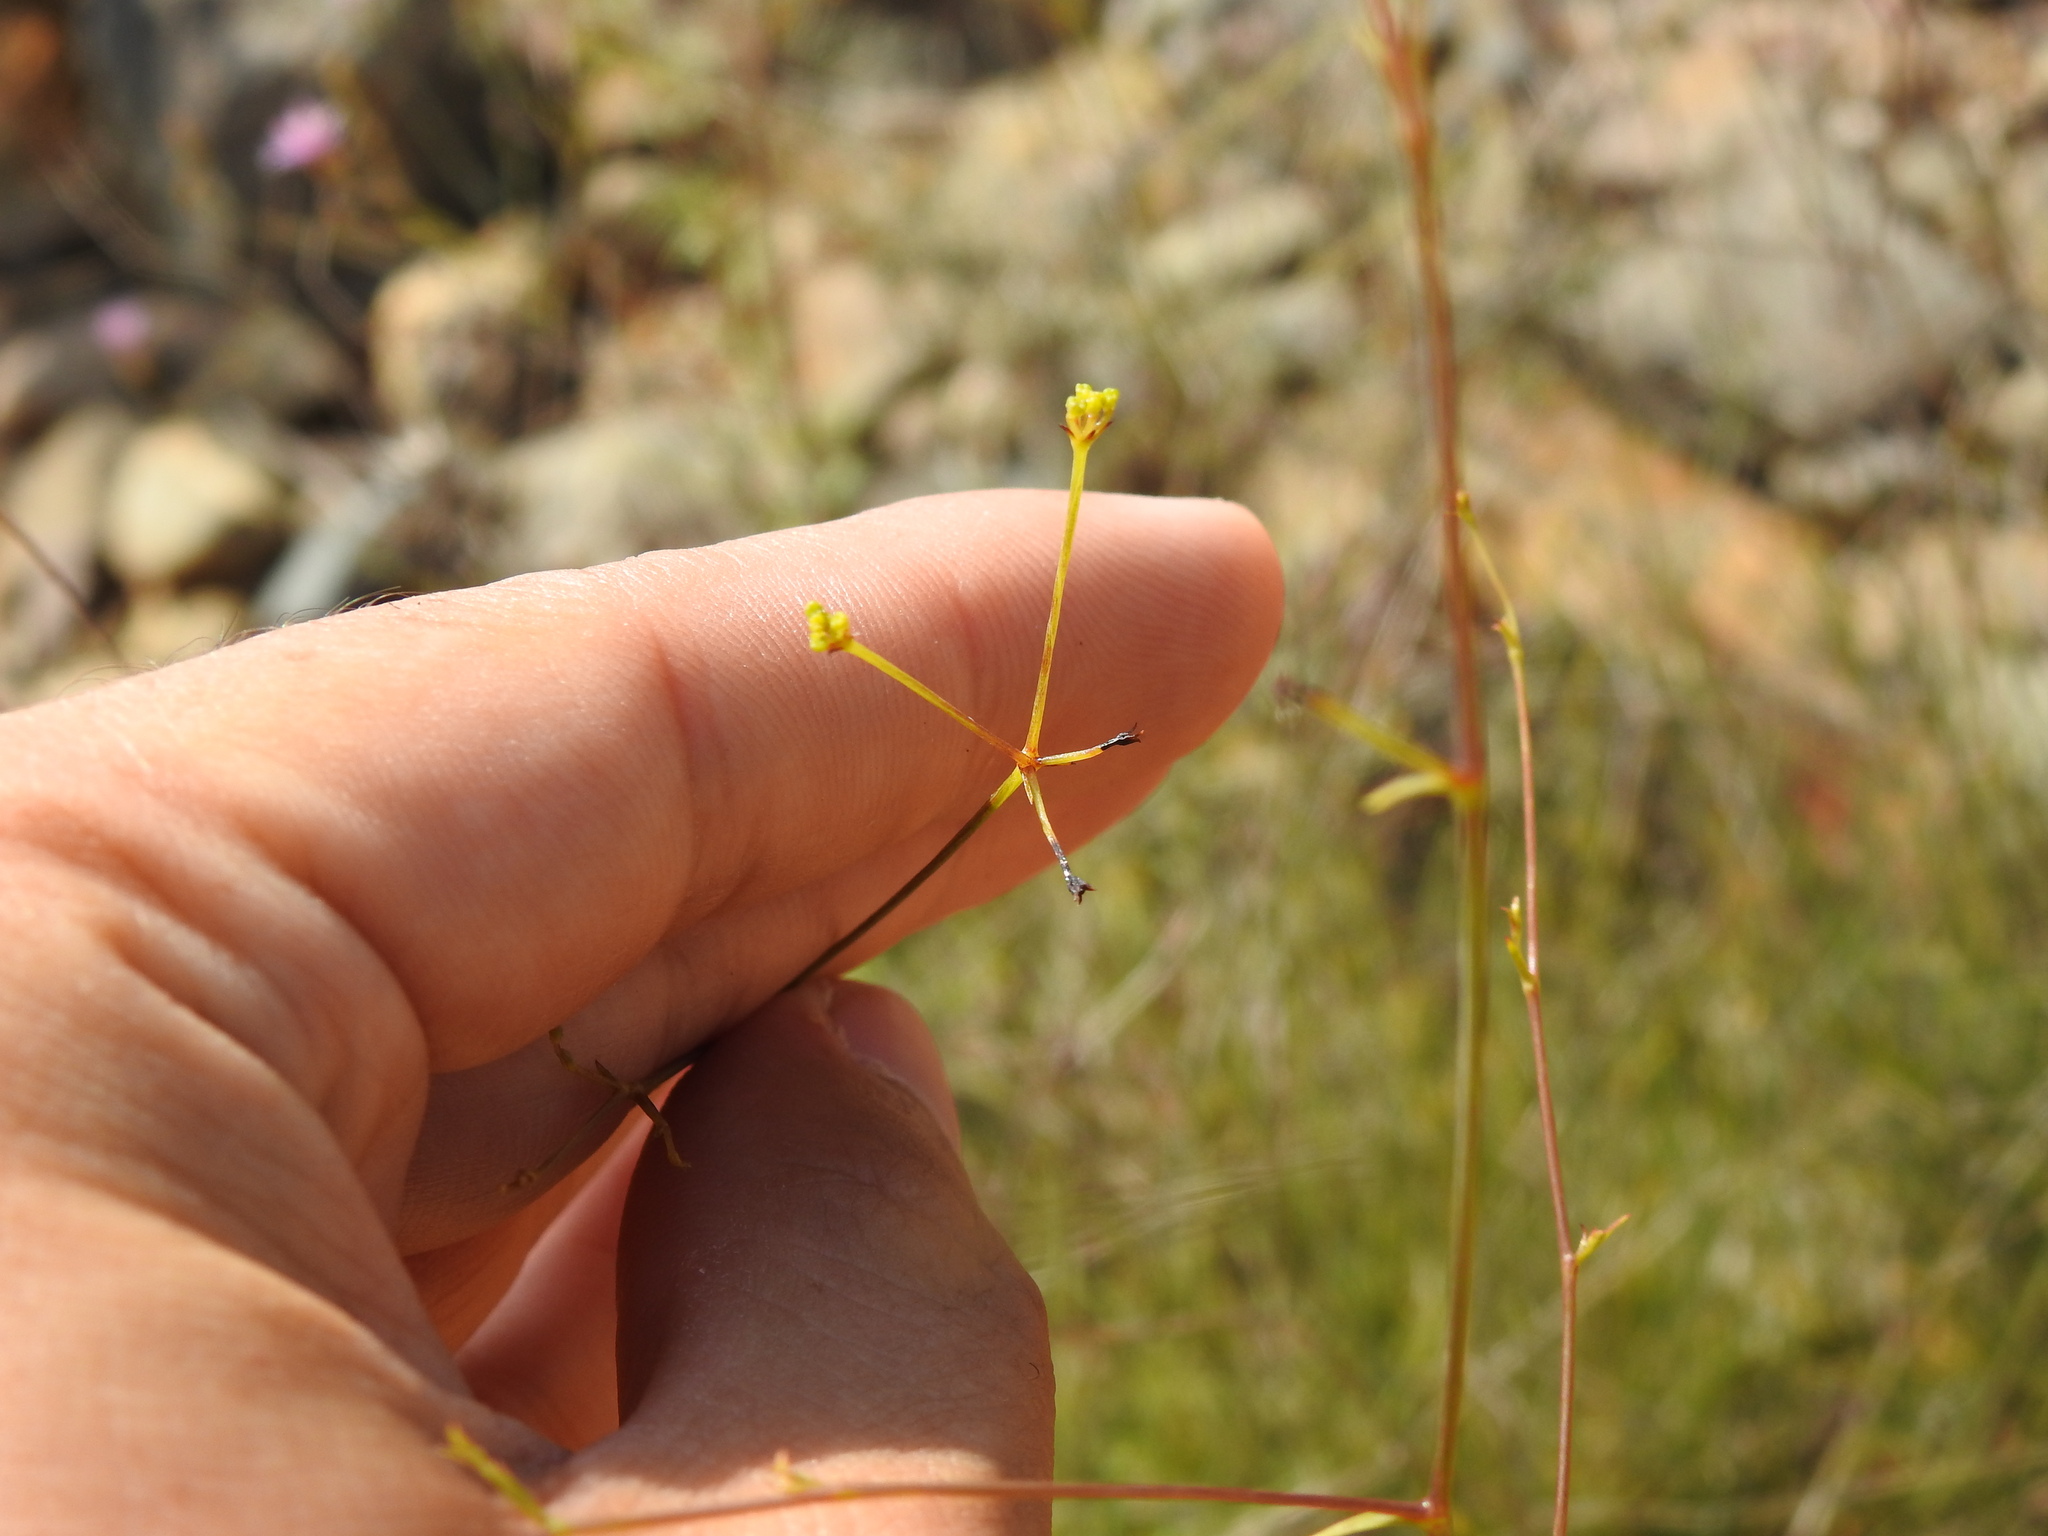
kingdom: Plantae
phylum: Tracheophyta
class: Magnoliopsida
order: Apiales
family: Apiaceae
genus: Bupleurum
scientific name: Bupleurum rigidum
